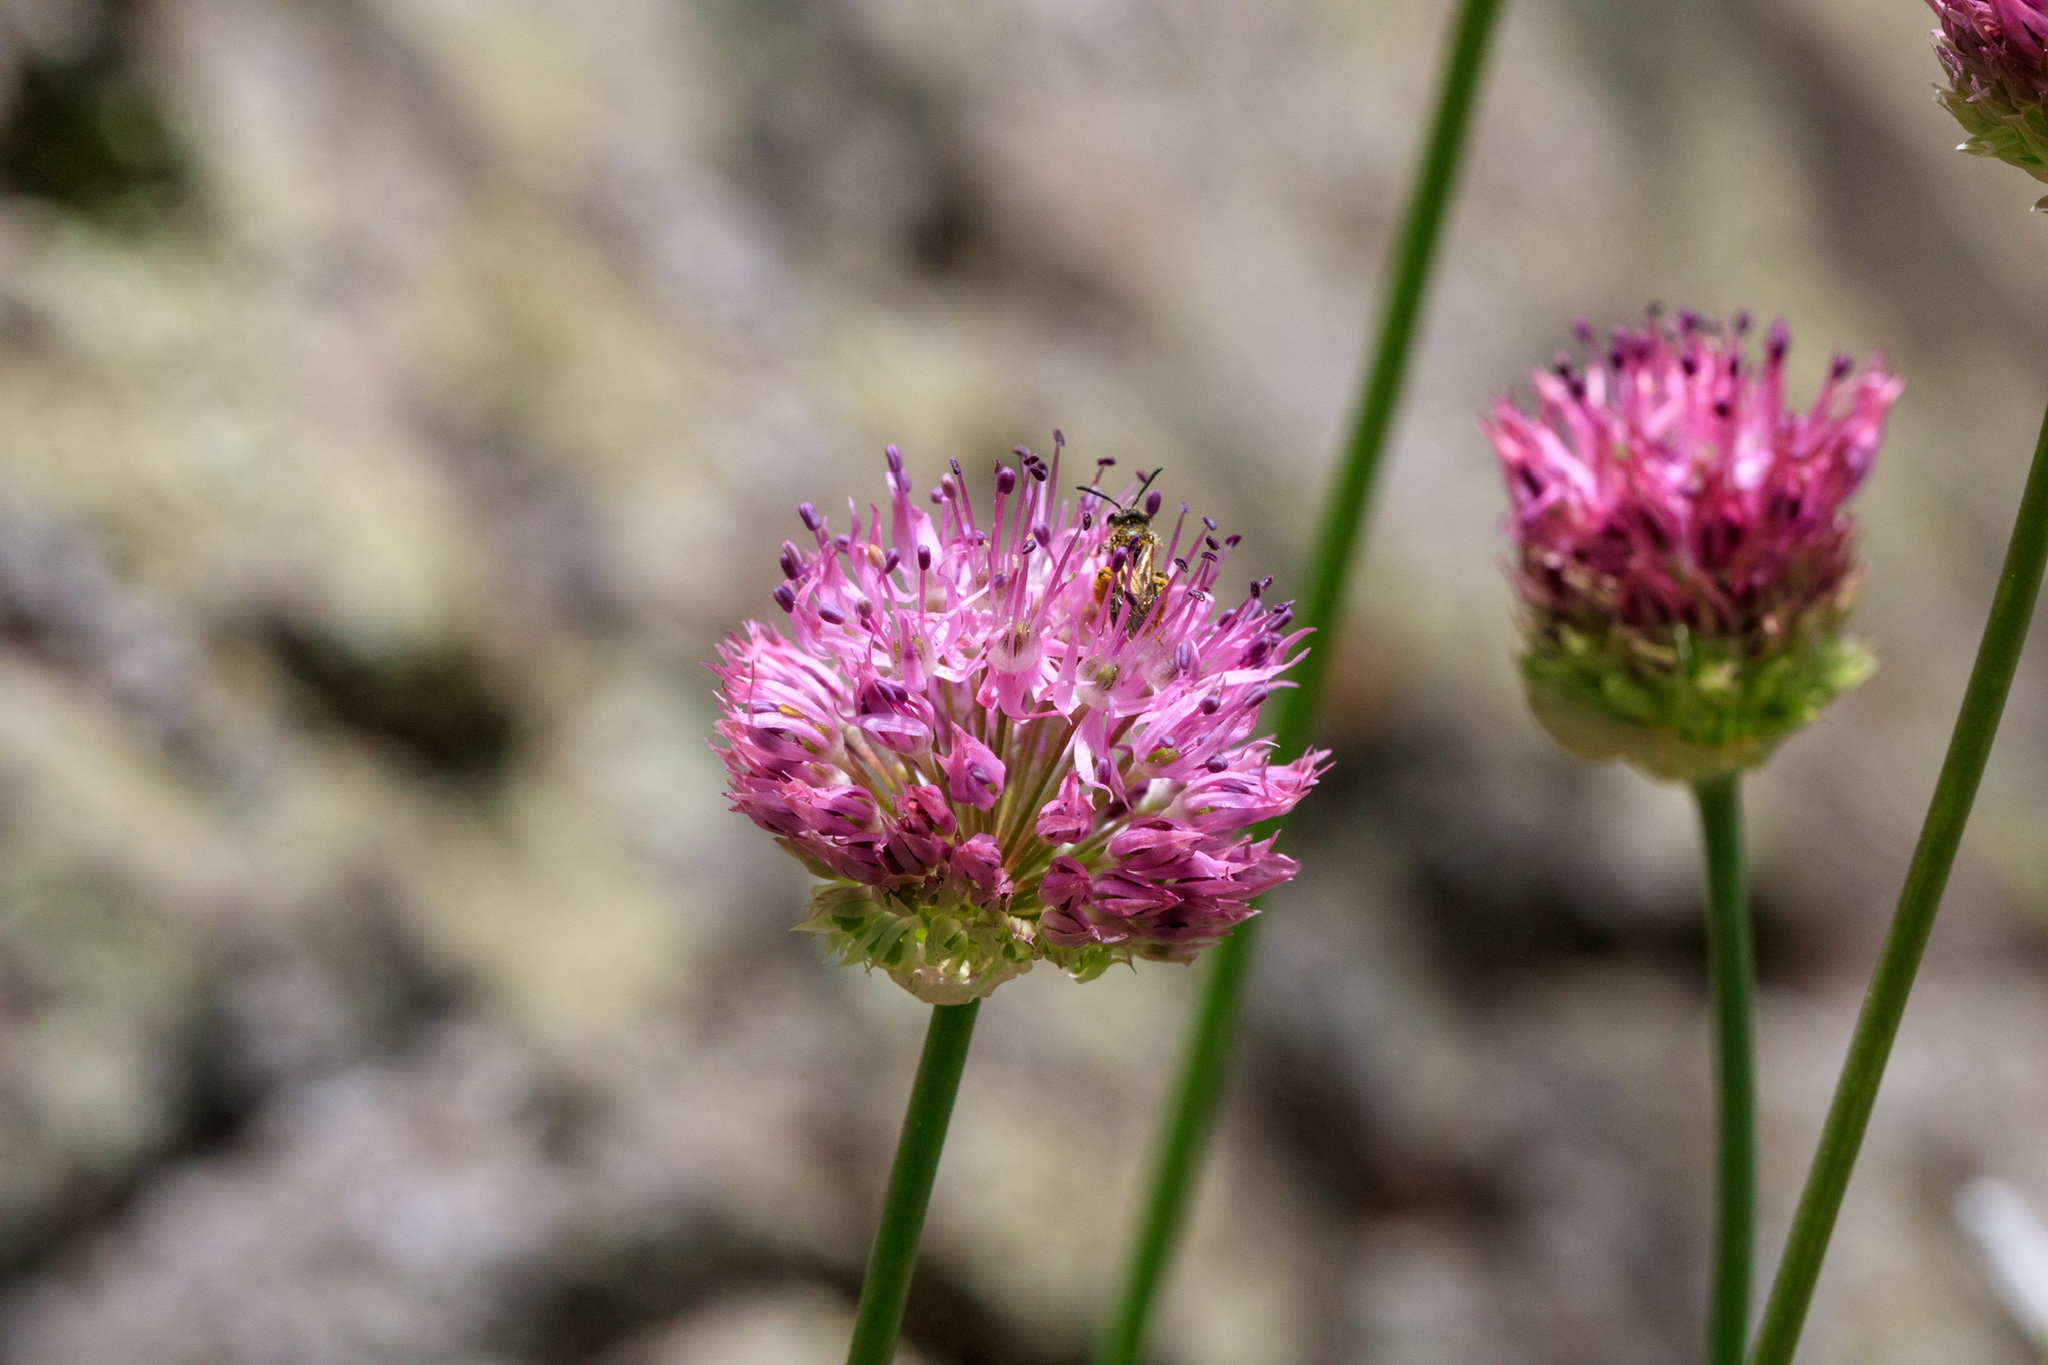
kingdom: Plantae
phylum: Tracheophyta
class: Liliopsida
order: Asparagales
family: Amaryllidaceae
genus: Allium
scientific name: Allium fetisowii
